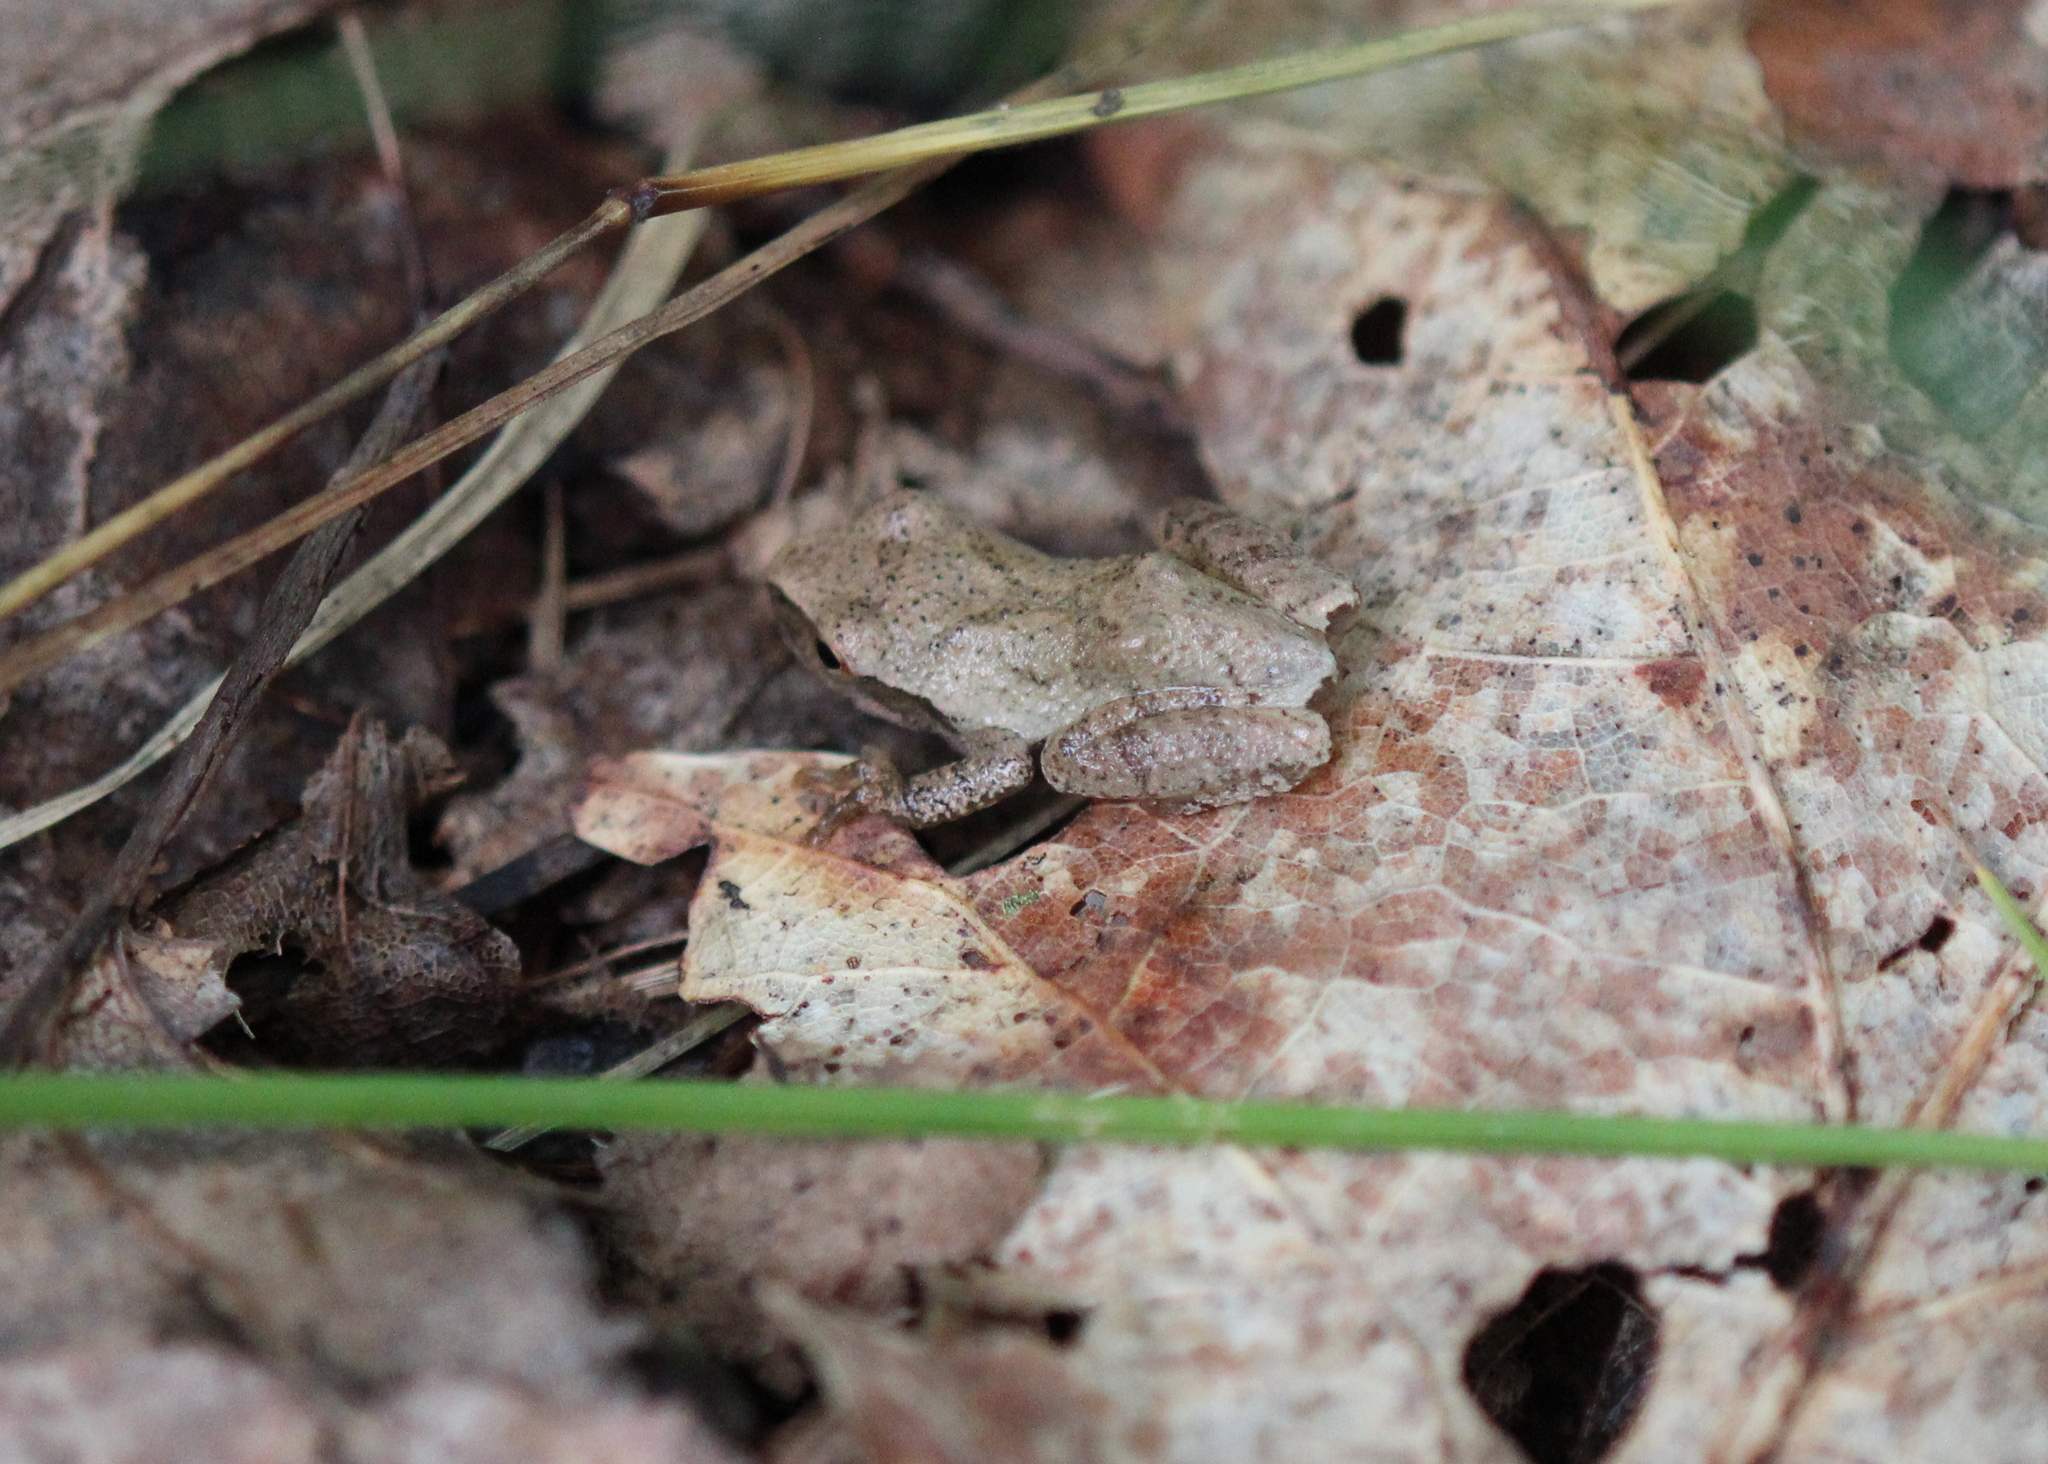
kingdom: Animalia
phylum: Chordata
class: Amphibia
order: Anura
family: Hylidae
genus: Pseudacris
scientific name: Pseudacris crucifer
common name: Spring peeper
